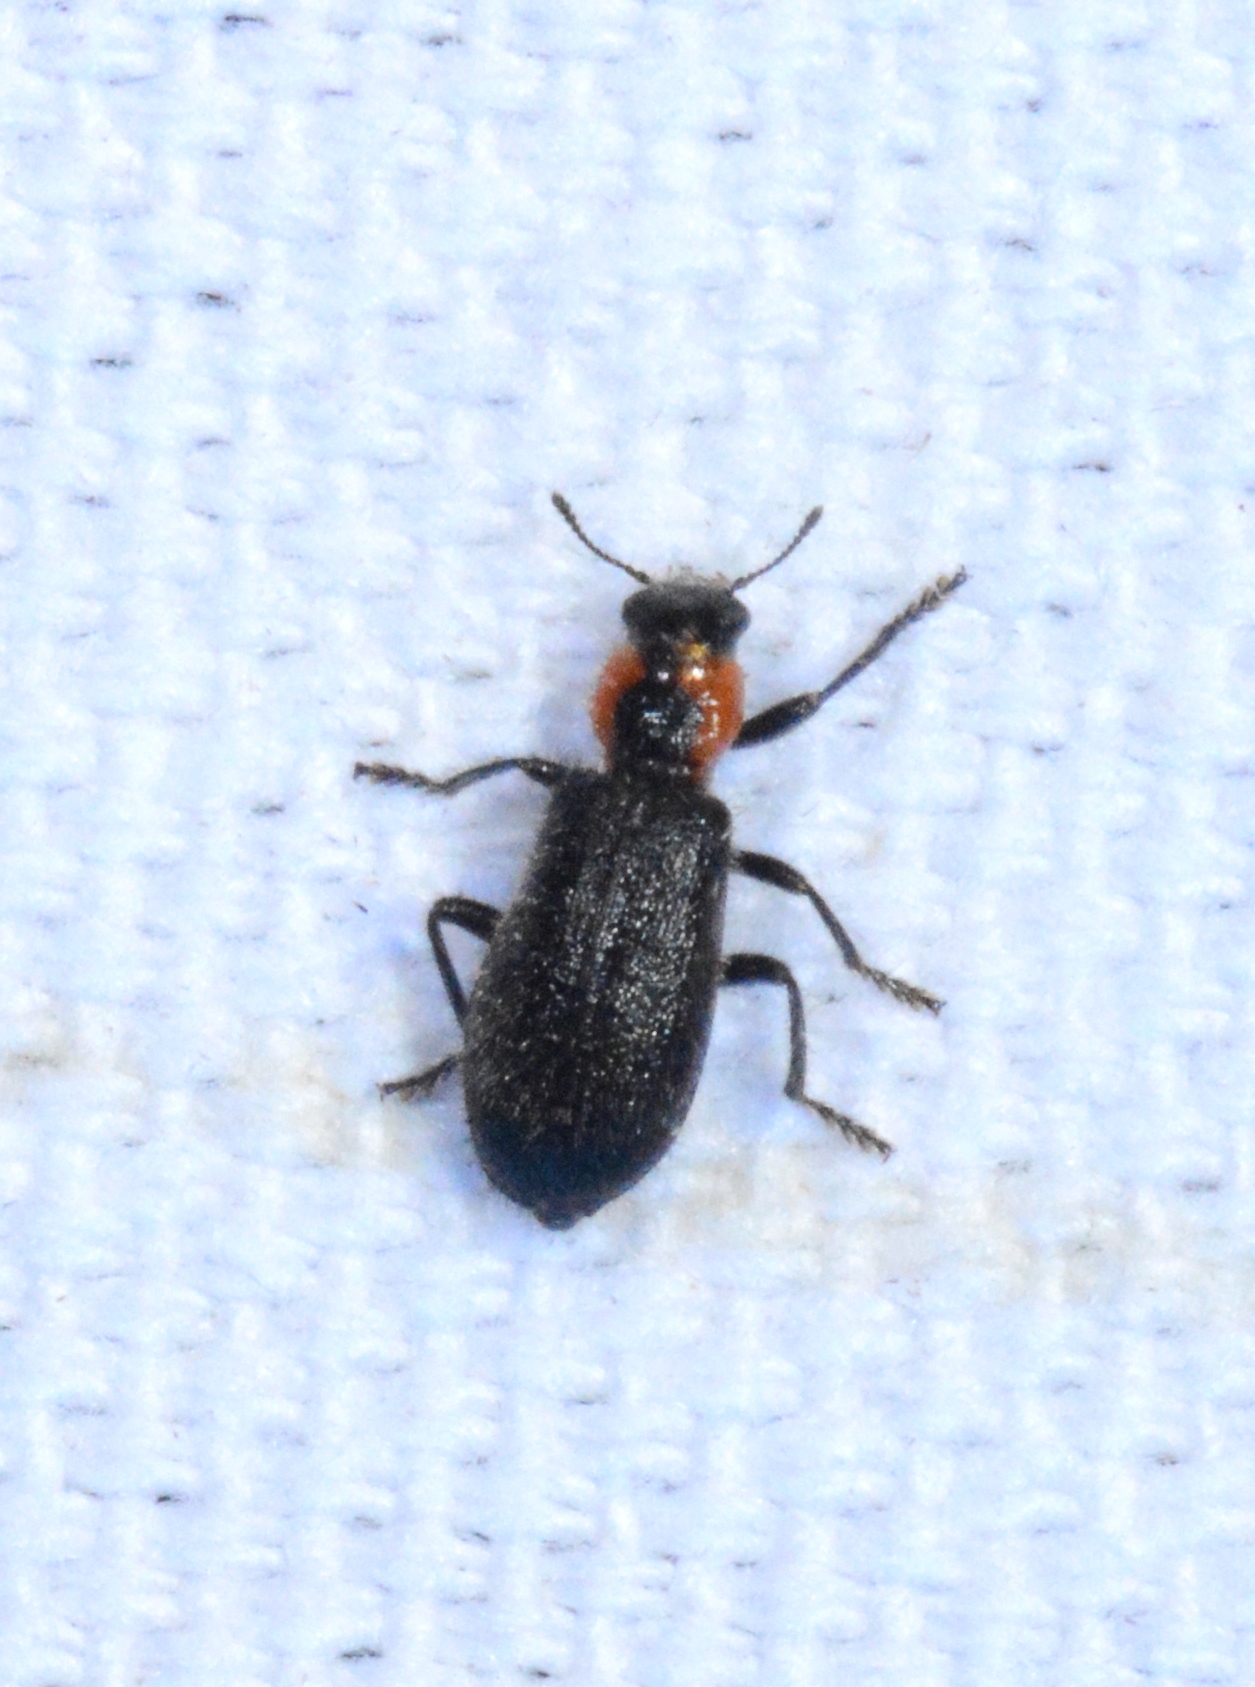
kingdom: Animalia
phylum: Arthropoda
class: Insecta
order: Coleoptera
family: Cleridae
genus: Placopterus
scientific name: Placopterus thoracicus
